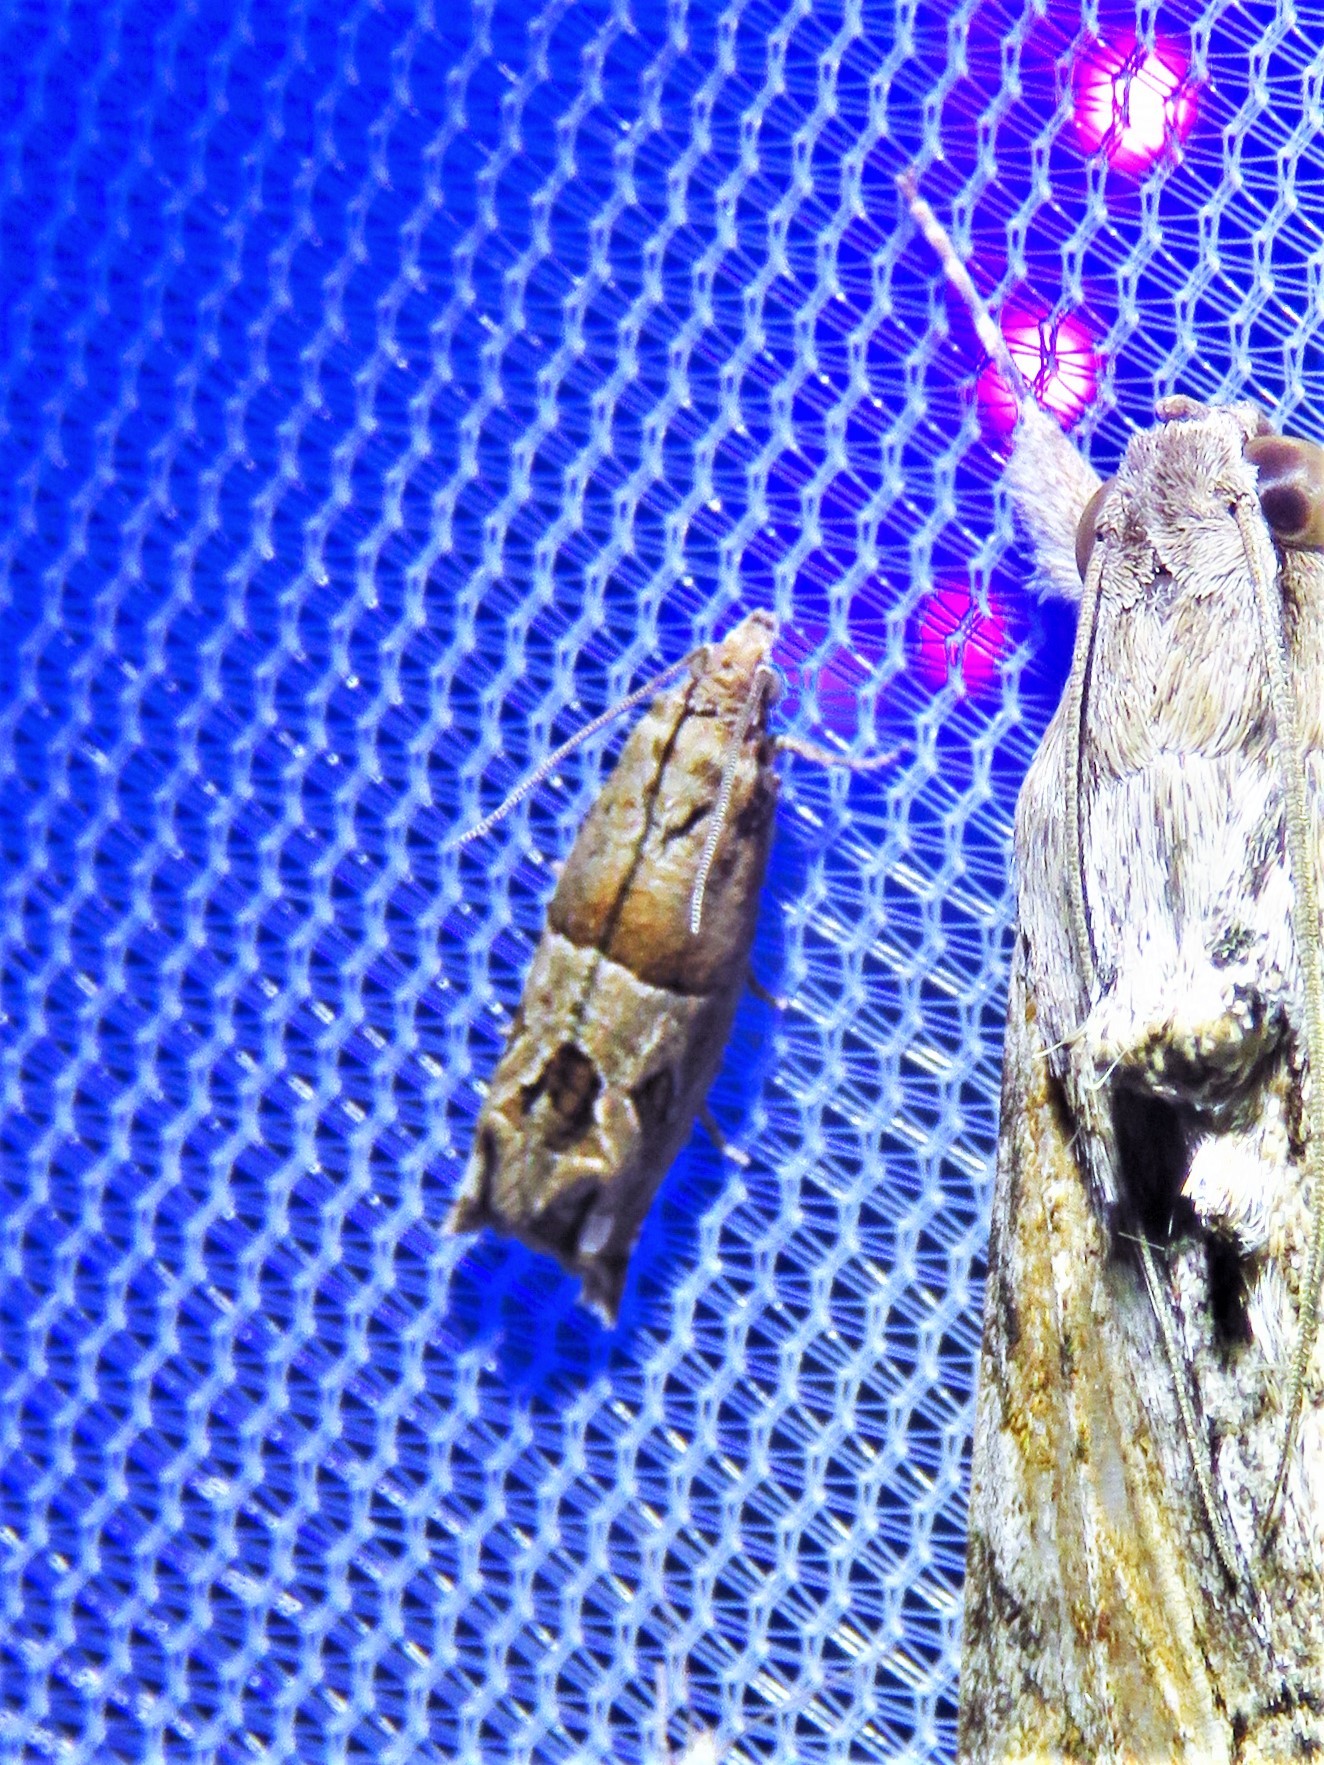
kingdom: Animalia
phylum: Arthropoda
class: Insecta
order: Lepidoptera
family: Tortricidae
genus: Sonia
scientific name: Sonia constrictana
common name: Constricted sonia moth
